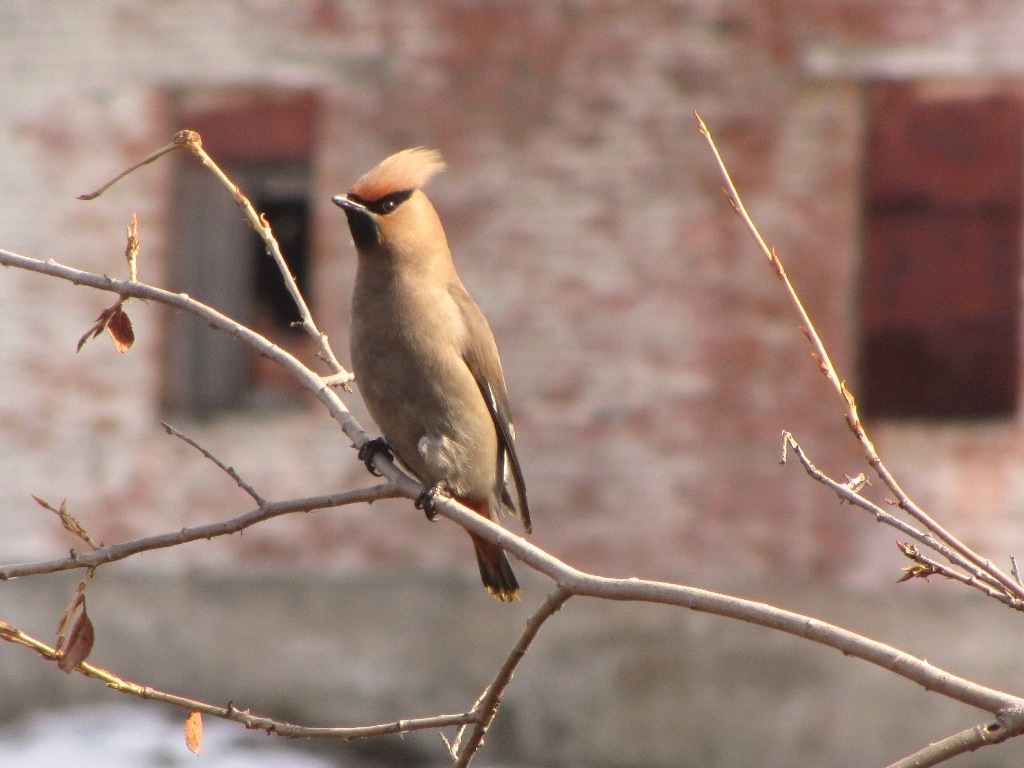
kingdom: Animalia
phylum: Chordata
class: Aves
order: Passeriformes
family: Bombycillidae
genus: Bombycilla
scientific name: Bombycilla garrulus
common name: Bohemian waxwing
